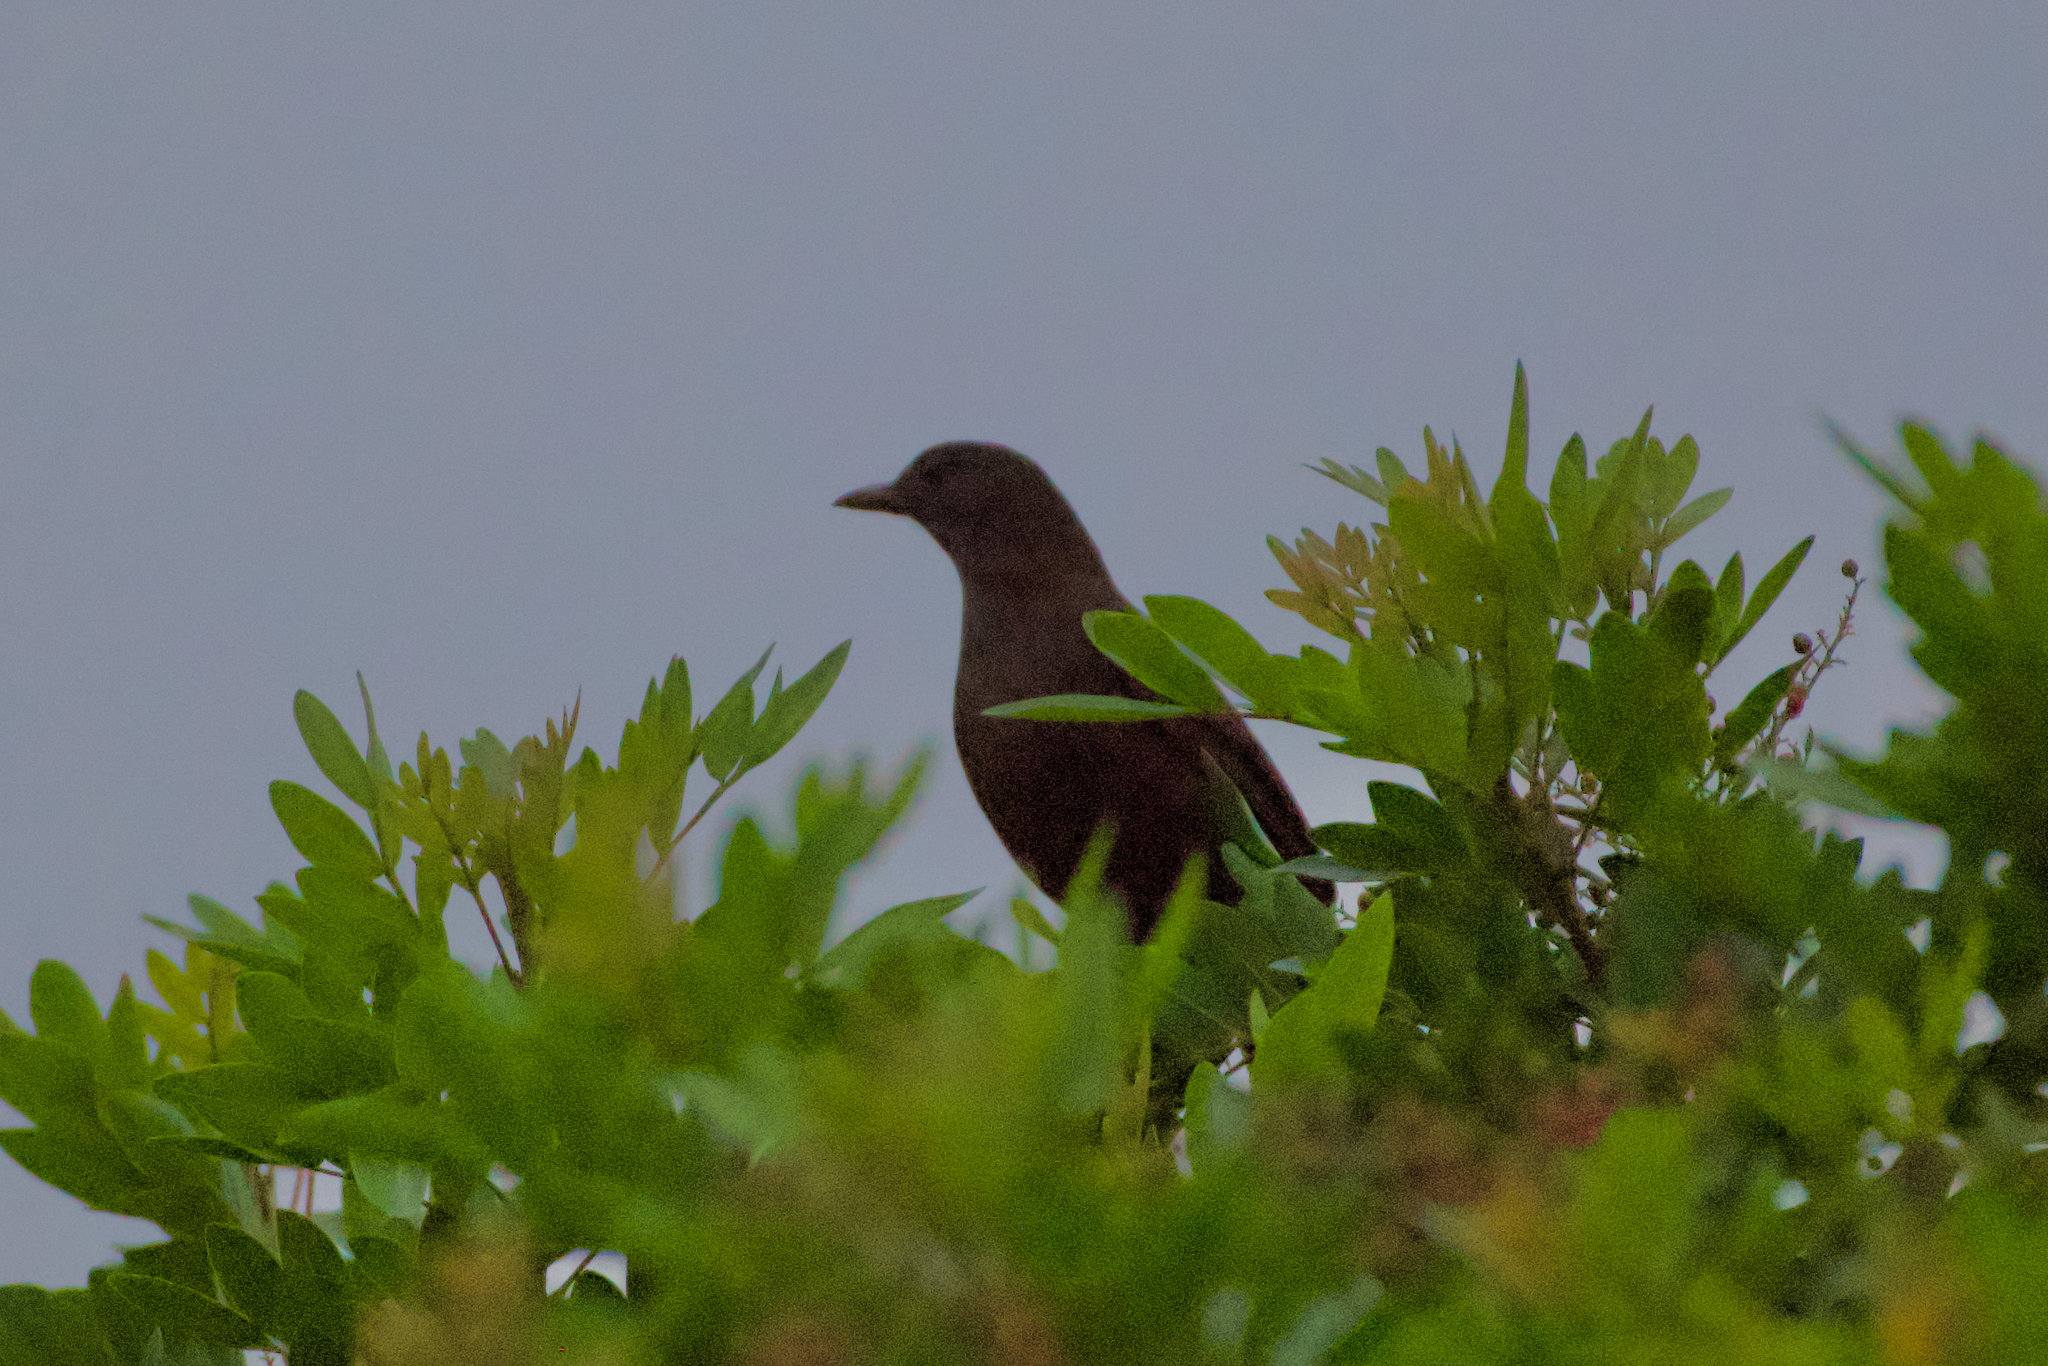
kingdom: Animalia
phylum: Chordata
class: Aves
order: Passeriformes
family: Turdidae
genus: Turdus
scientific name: Turdus merula
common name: Common blackbird
